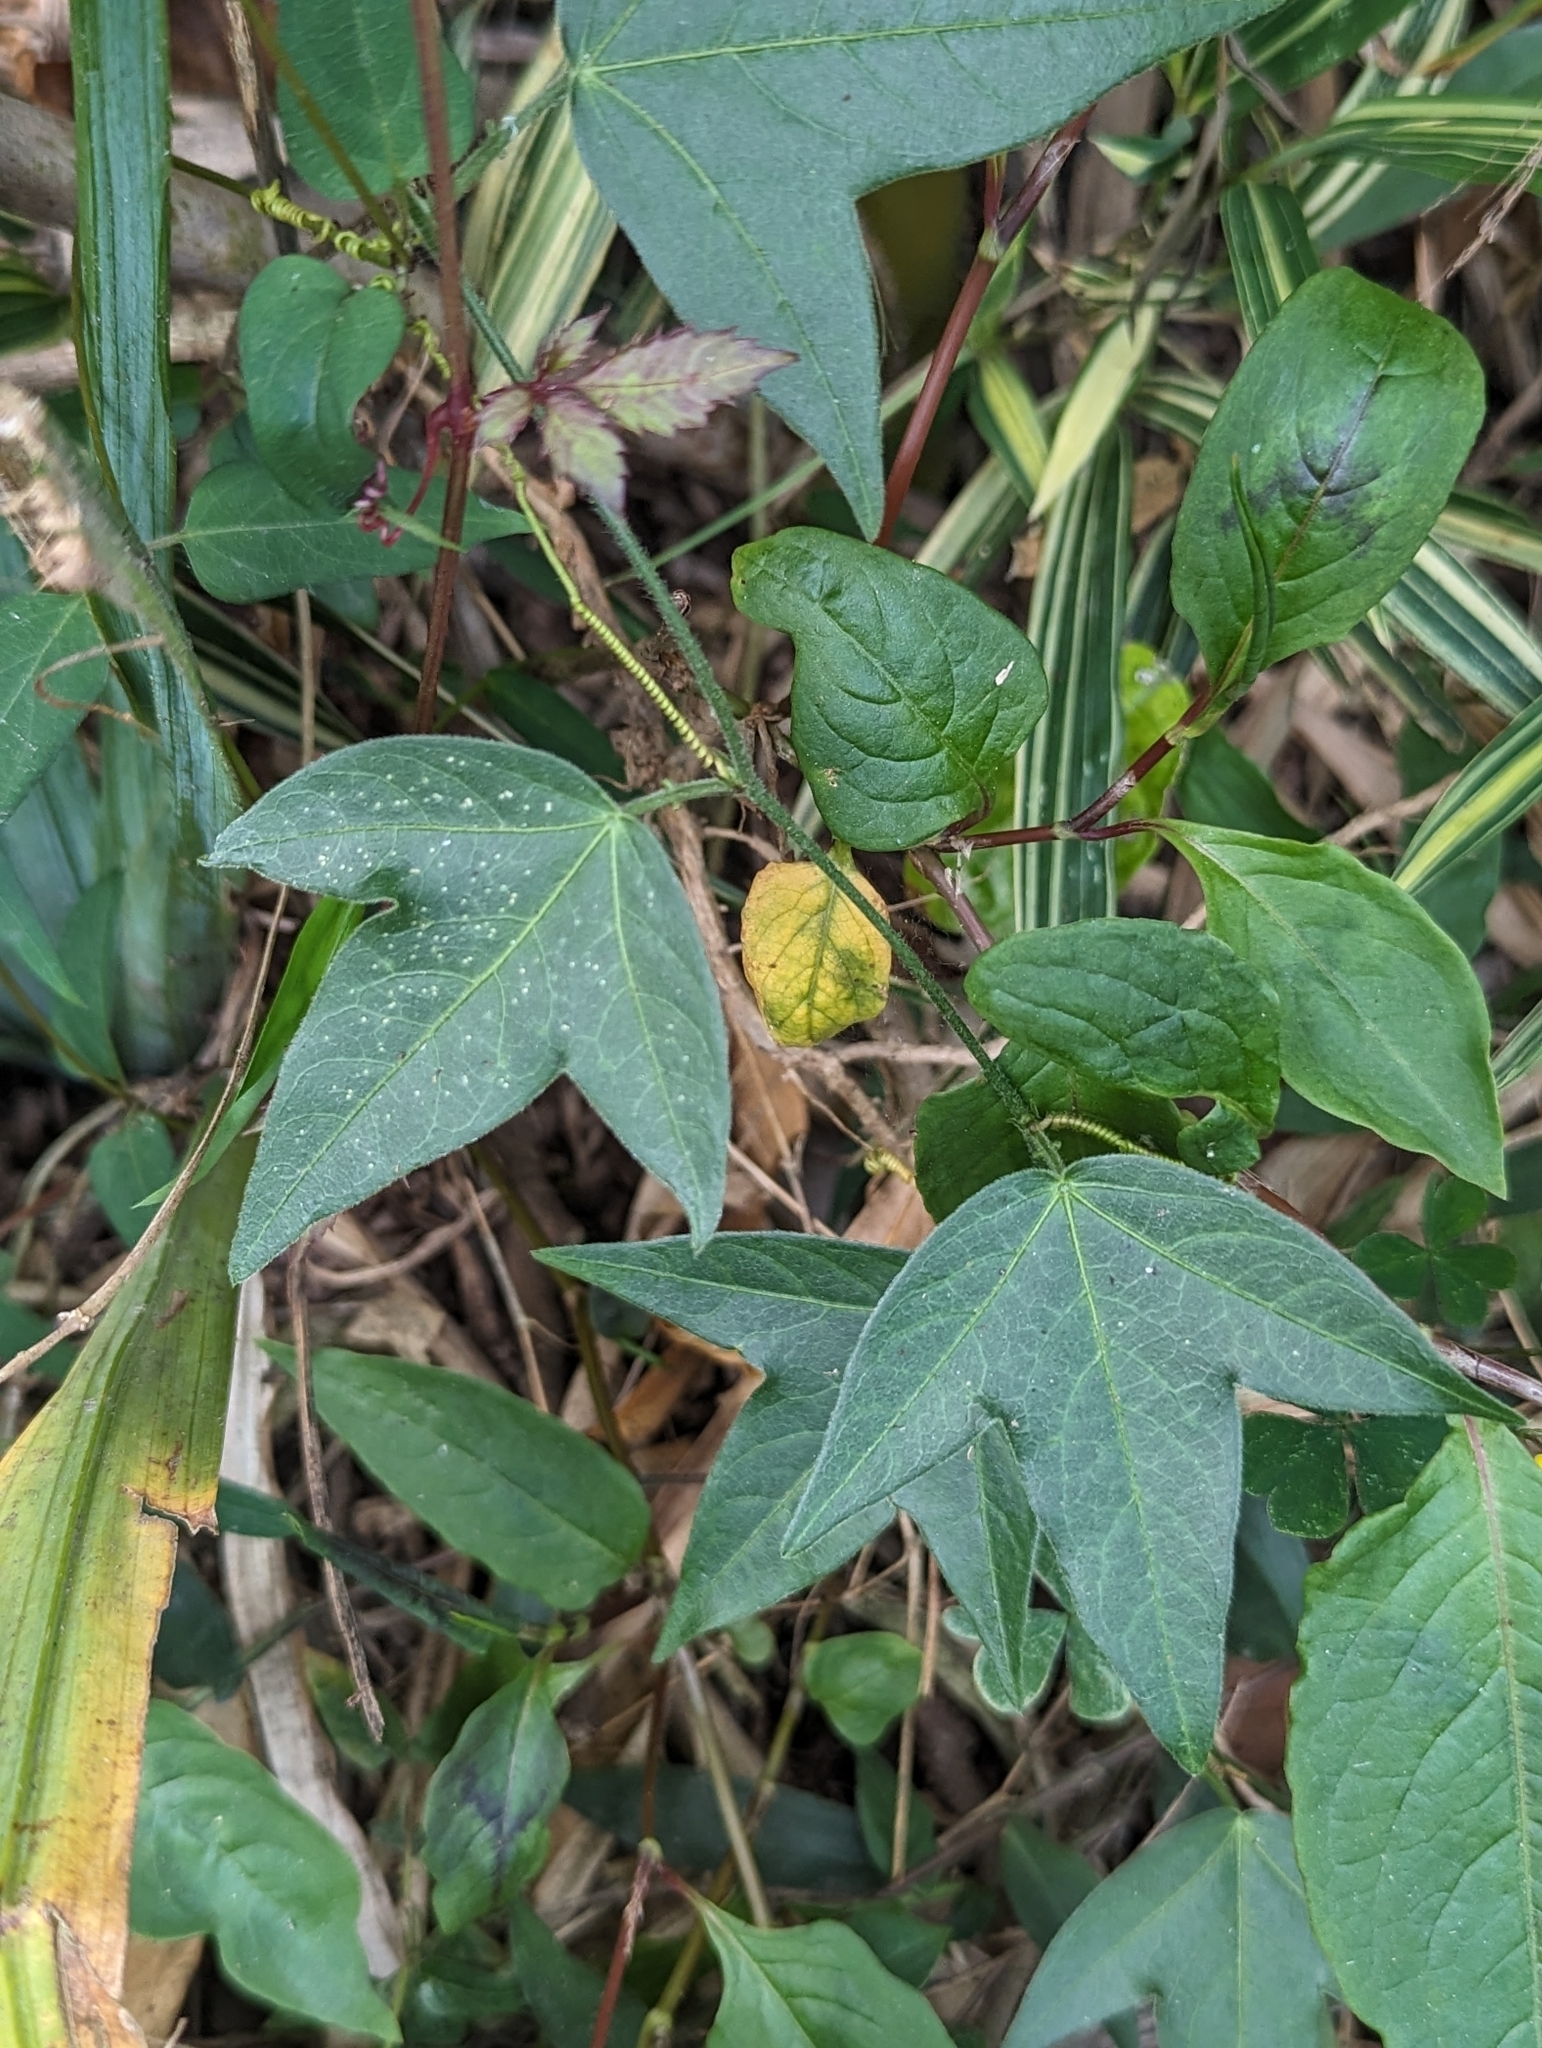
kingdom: Plantae
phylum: Tracheophyta
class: Magnoliopsida
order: Malpighiales
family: Passifloraceae
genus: Passiflora
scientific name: Passiflora suberosa
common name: Wild passionfruit
